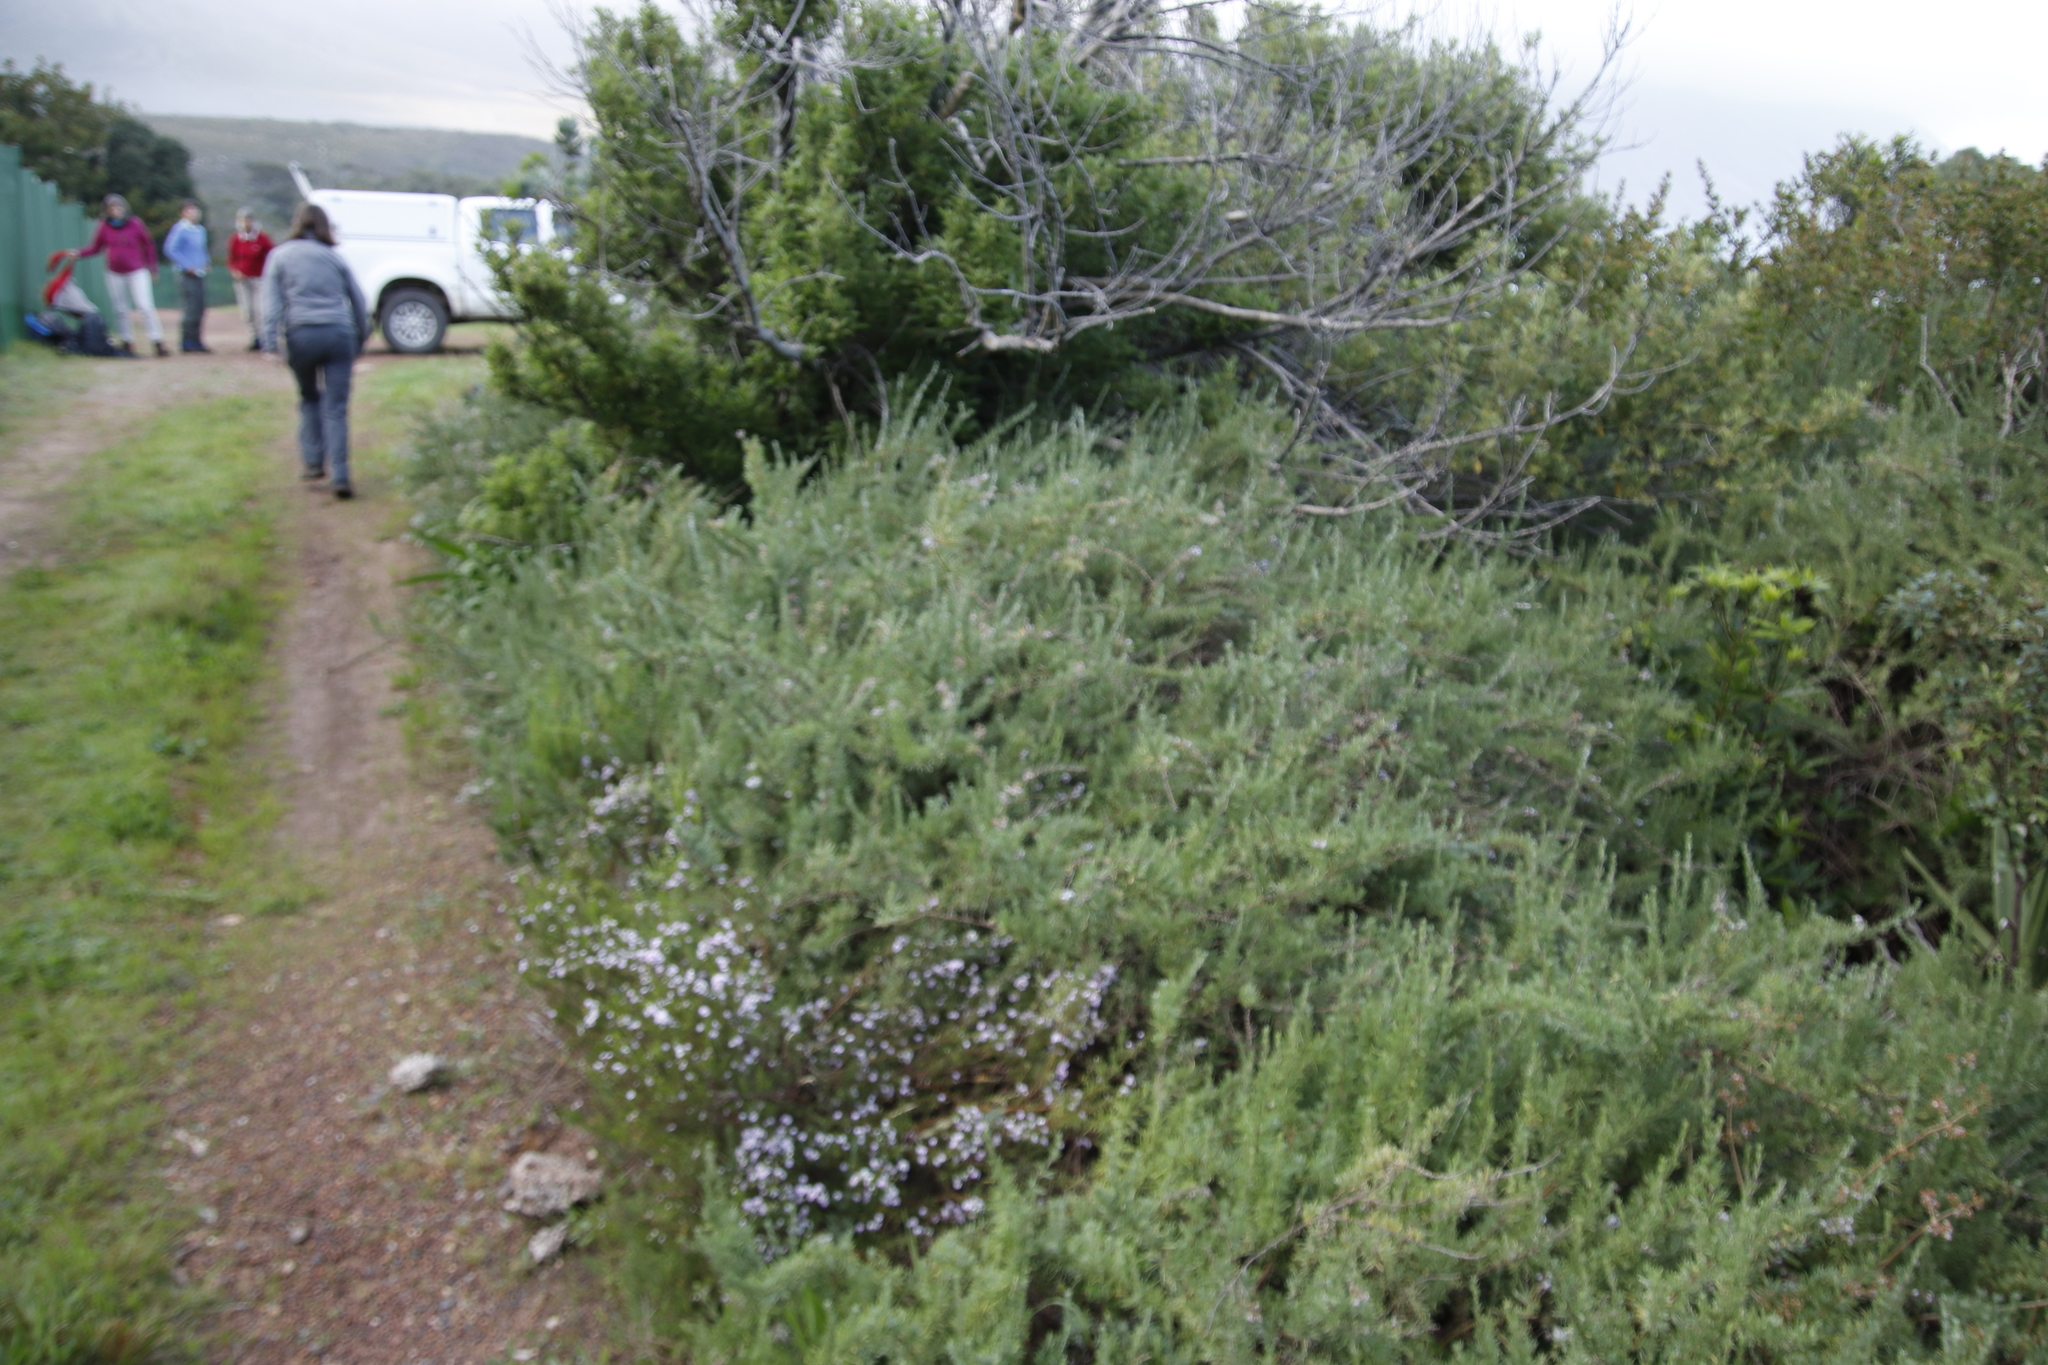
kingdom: Plantae
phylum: Tracheophyta
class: Magnoliopsida
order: Asterales
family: Asteraceae
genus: Eriocephalus
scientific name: Eriocephalus africanus
